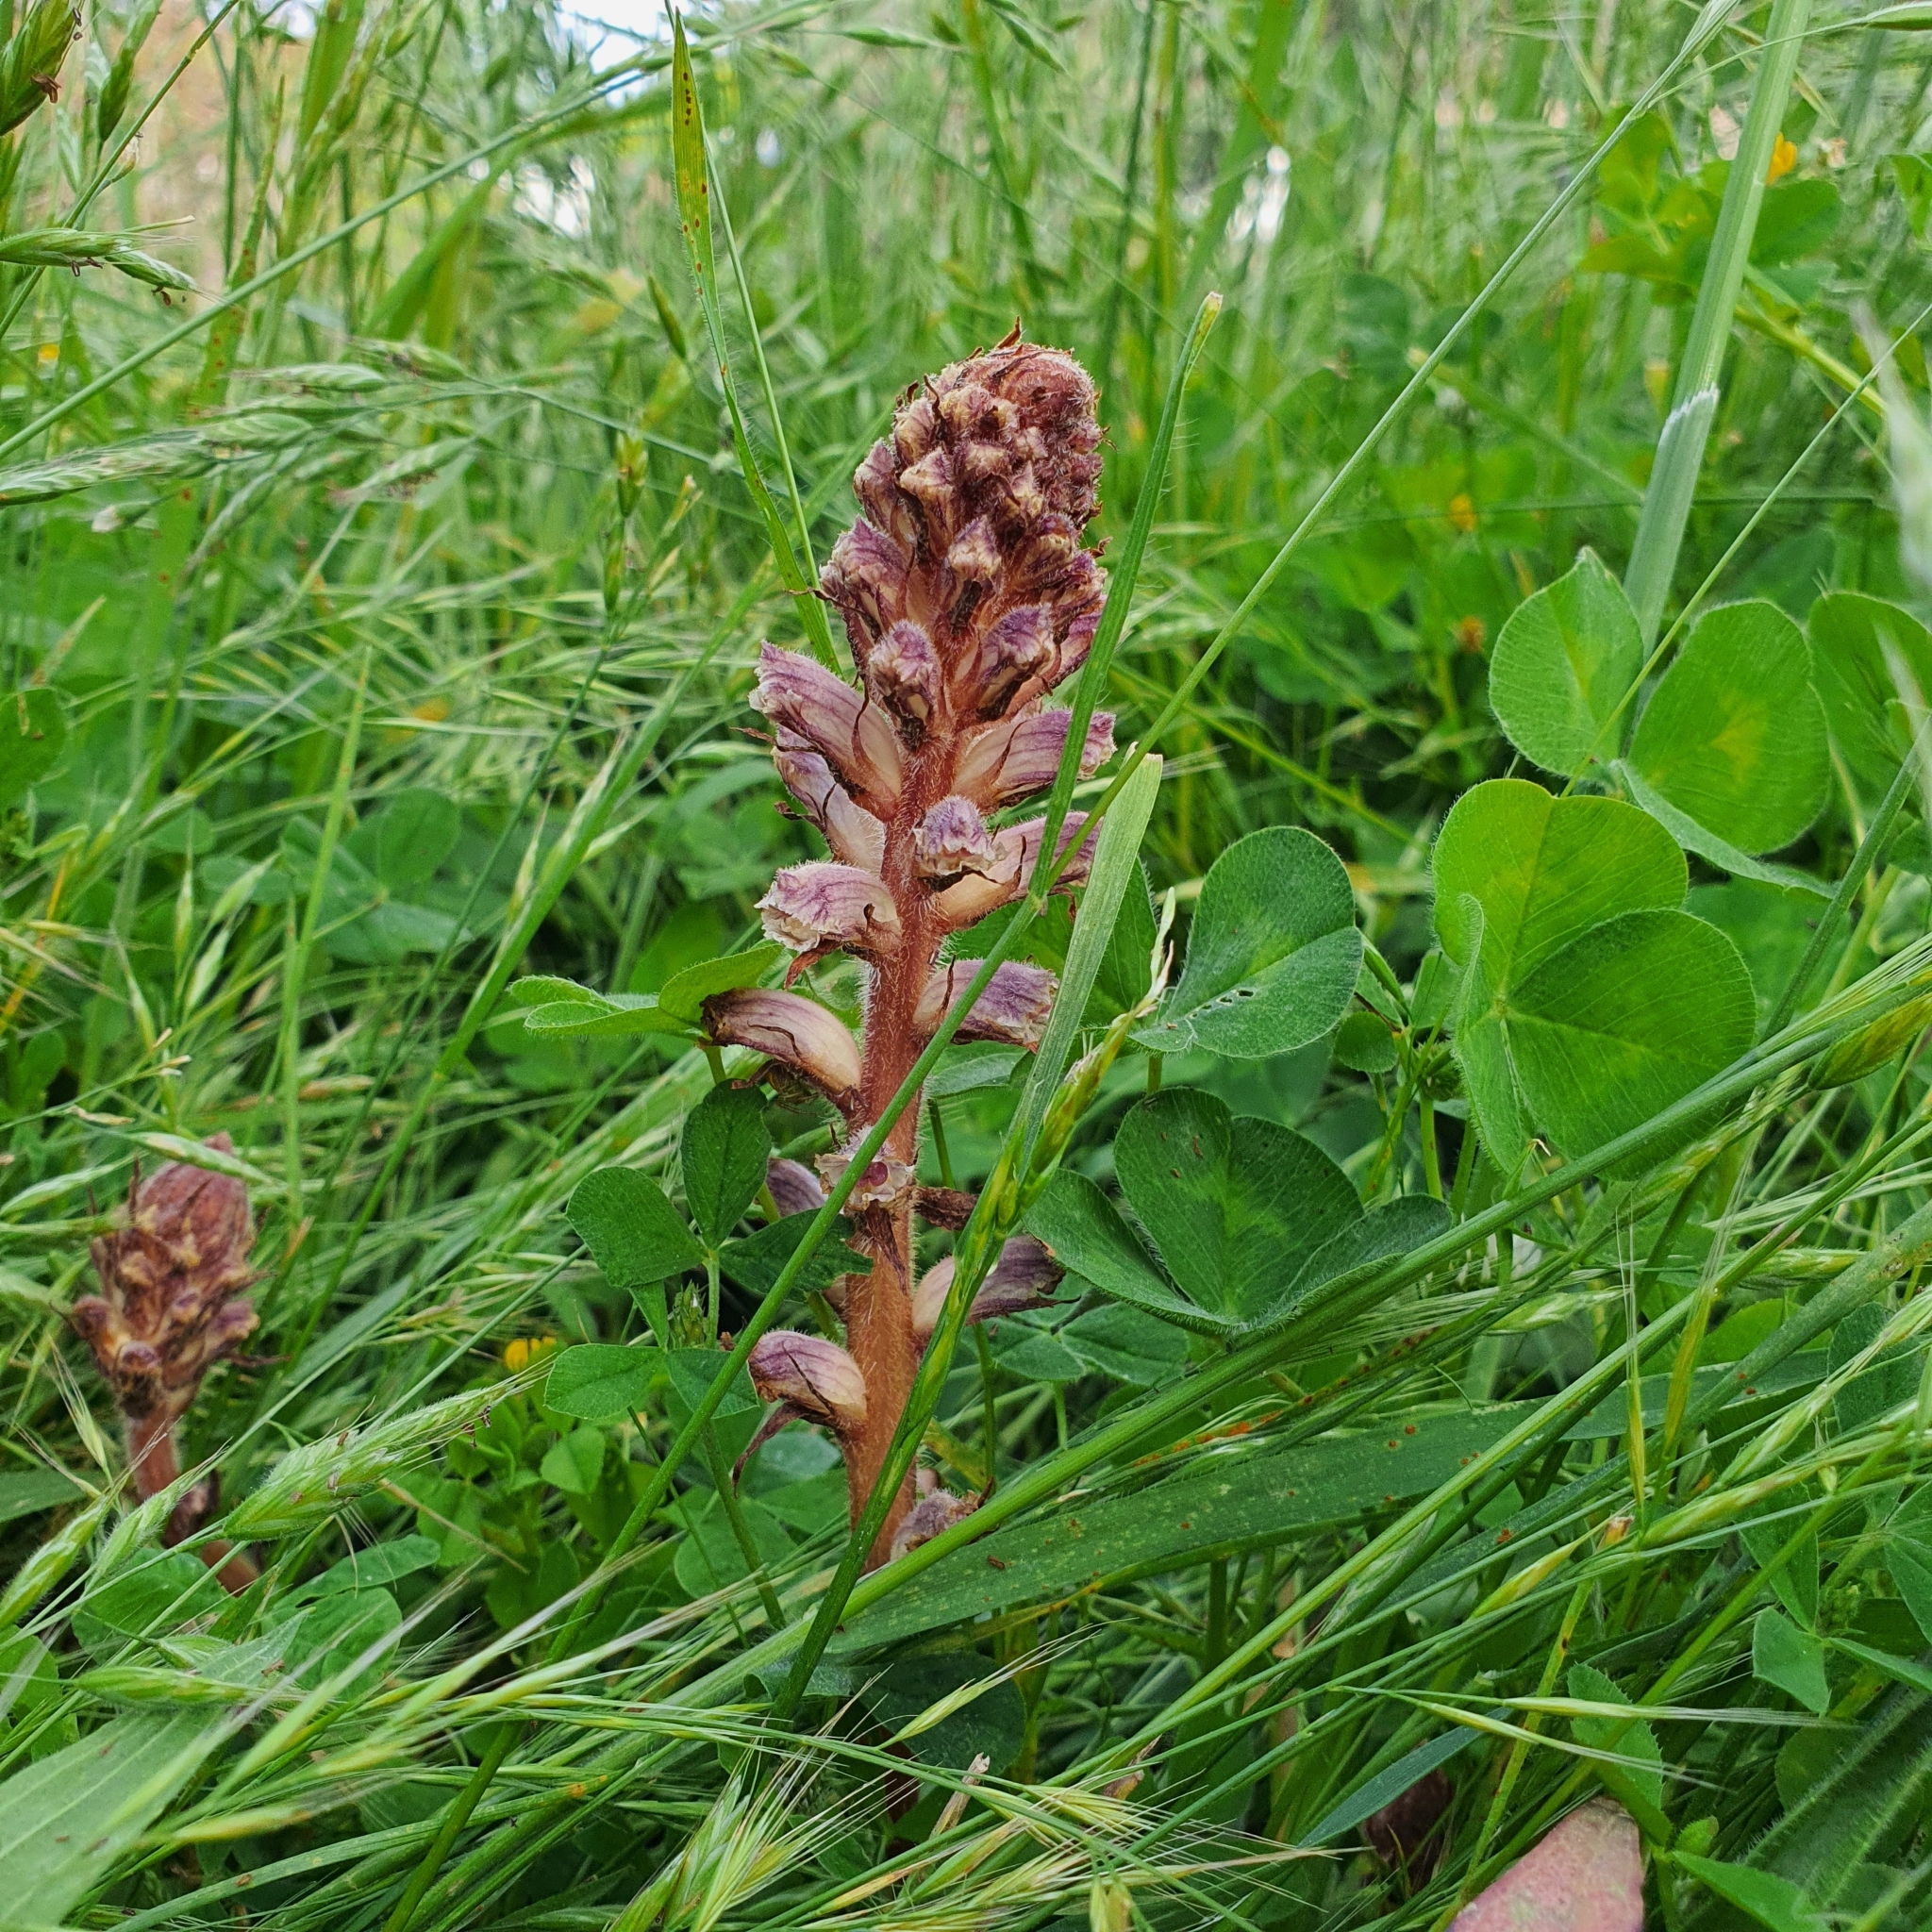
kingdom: Plantae
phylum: Tracheophyta
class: Magnoliopsida
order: Lamiales
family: Orobanchaceae
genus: Orobanche
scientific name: Orobanche minor
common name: Common broomrape
